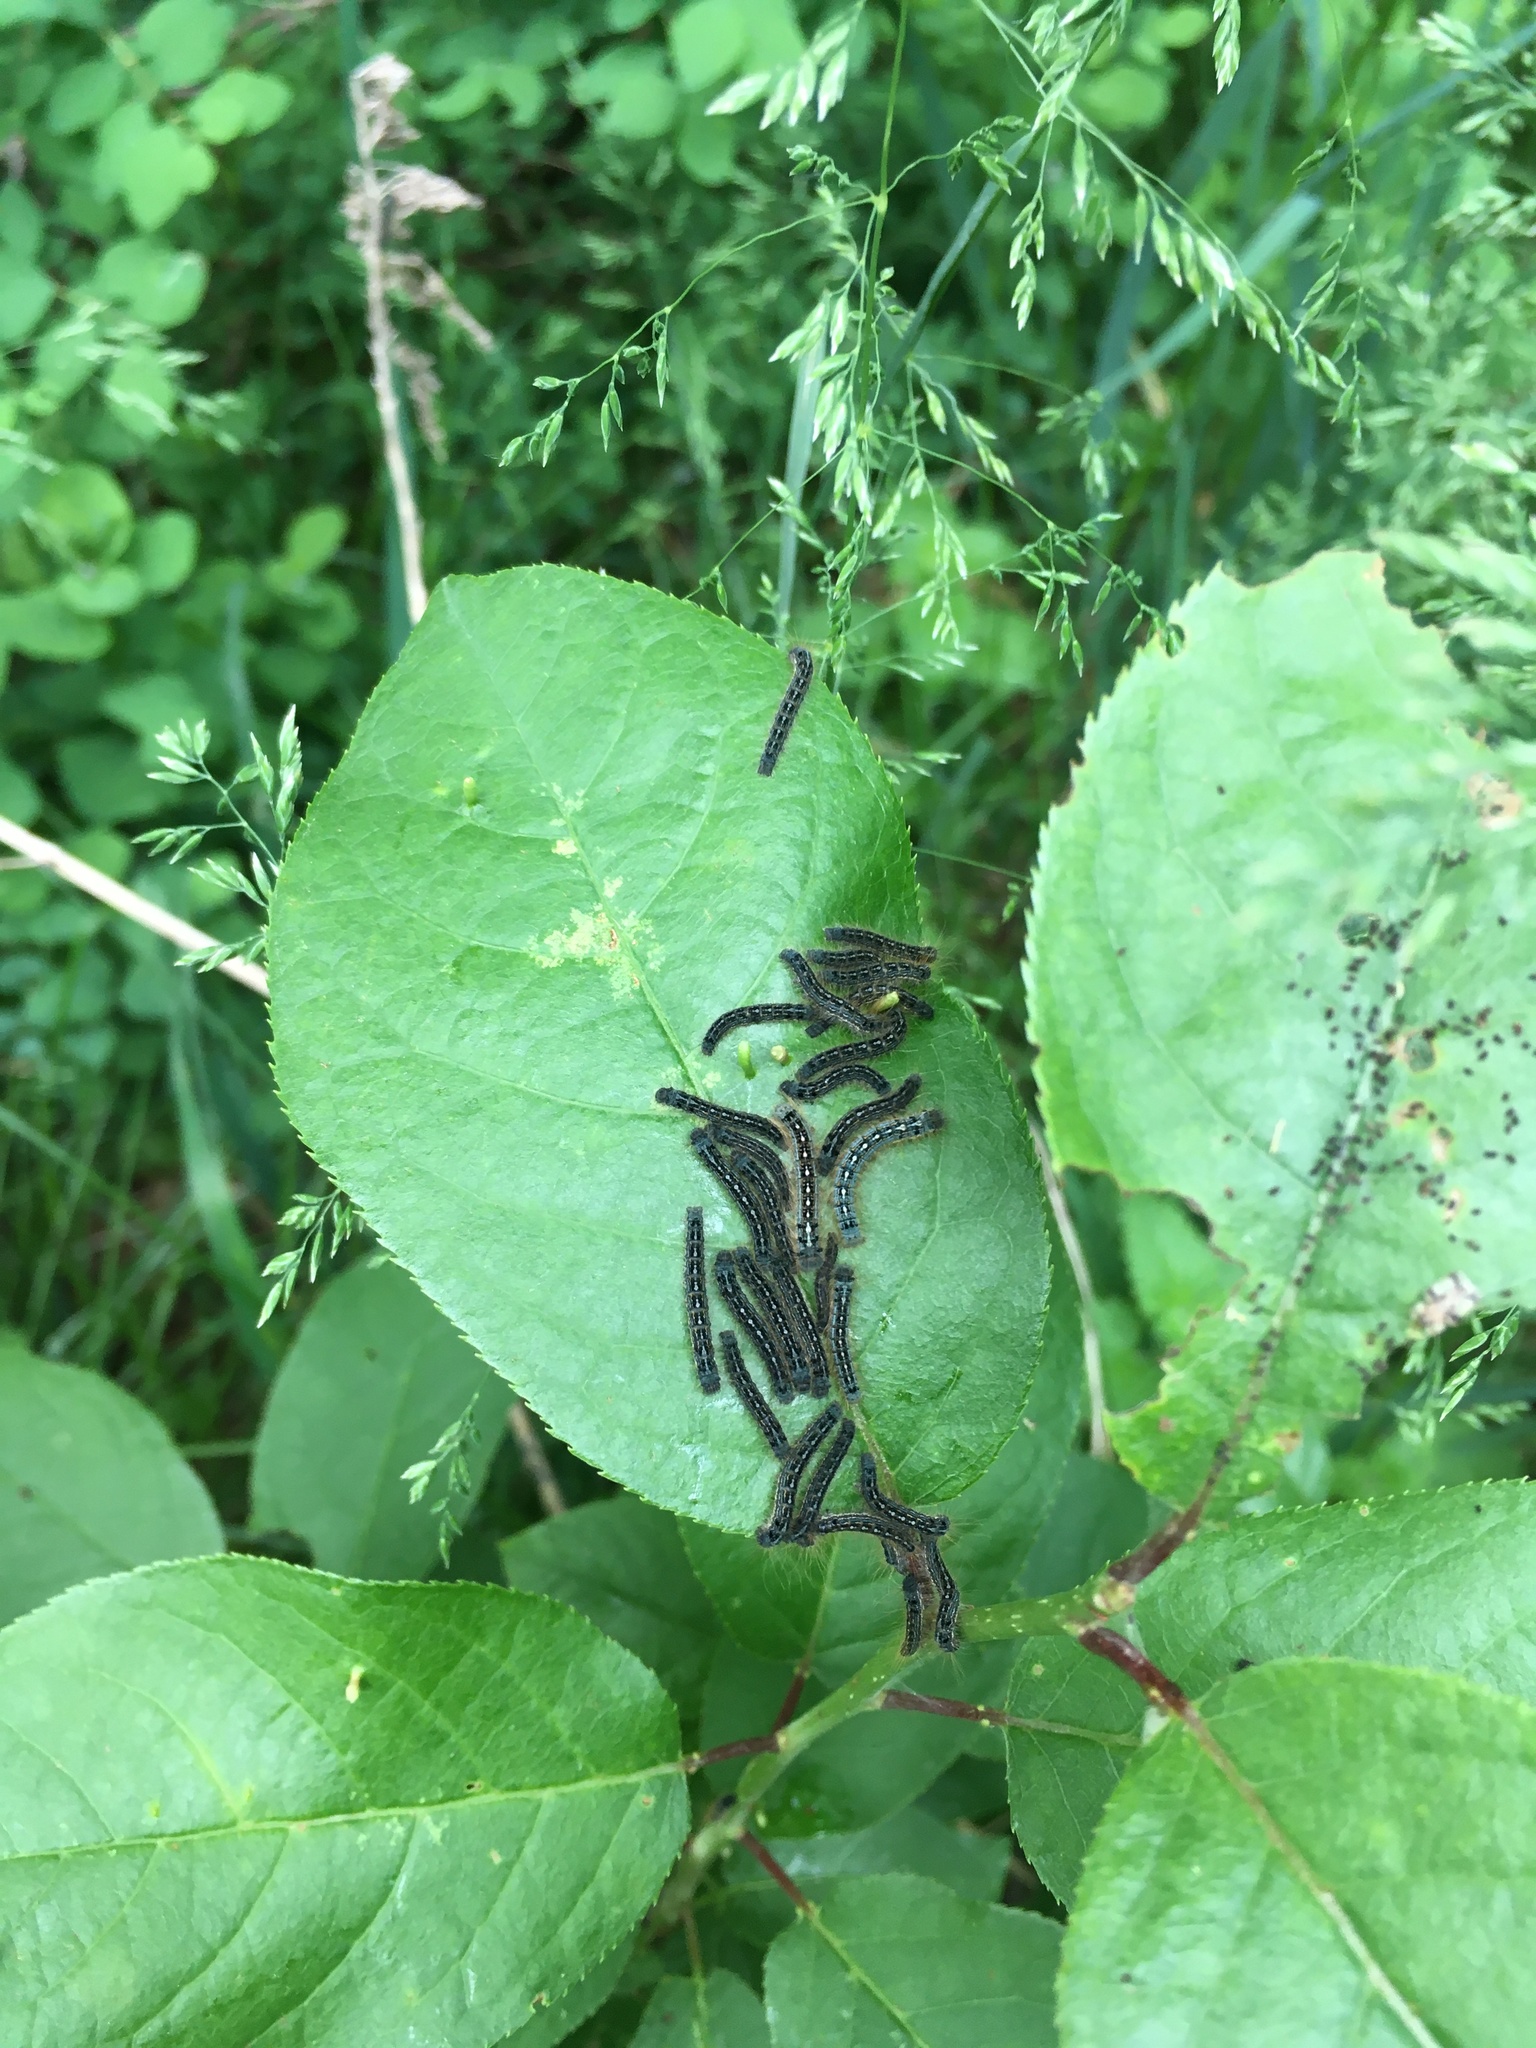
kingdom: Animalia
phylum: Arthropoda
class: Insecta
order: Lepidoptera
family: Lasiocampidae
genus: Malacosoma
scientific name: Malacosoma californica
